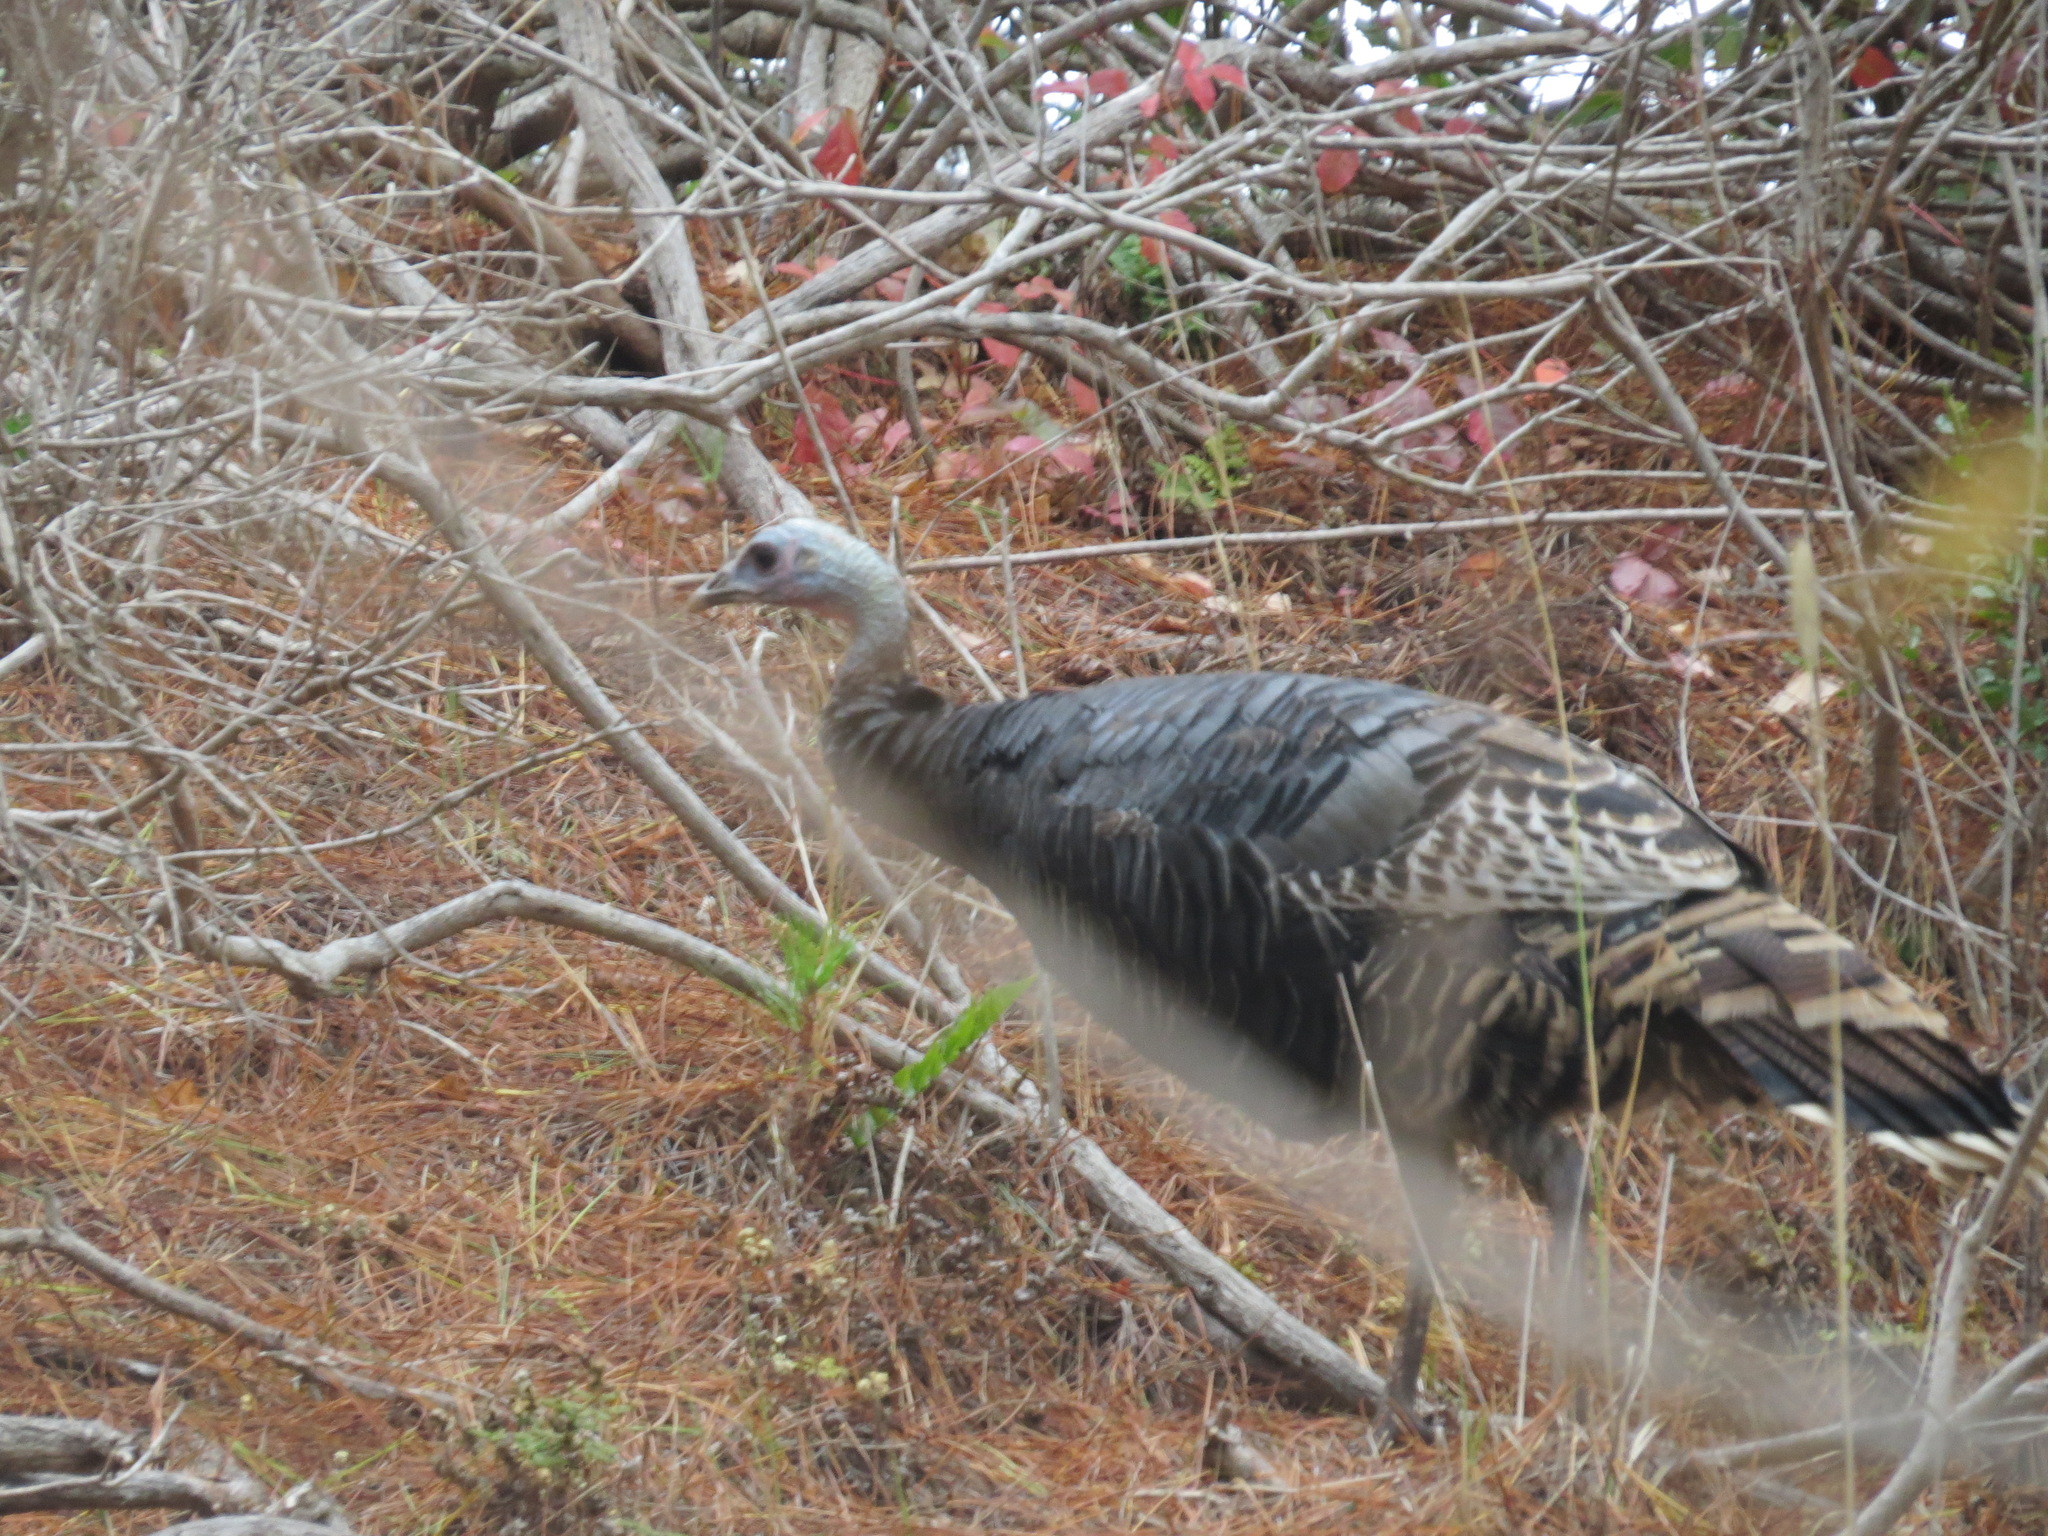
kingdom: Animalia
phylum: Chordata
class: Aves
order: Galliformes
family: Phasianidae
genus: Meleagris
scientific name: Meleagris gallopavo
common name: Wild turkey
